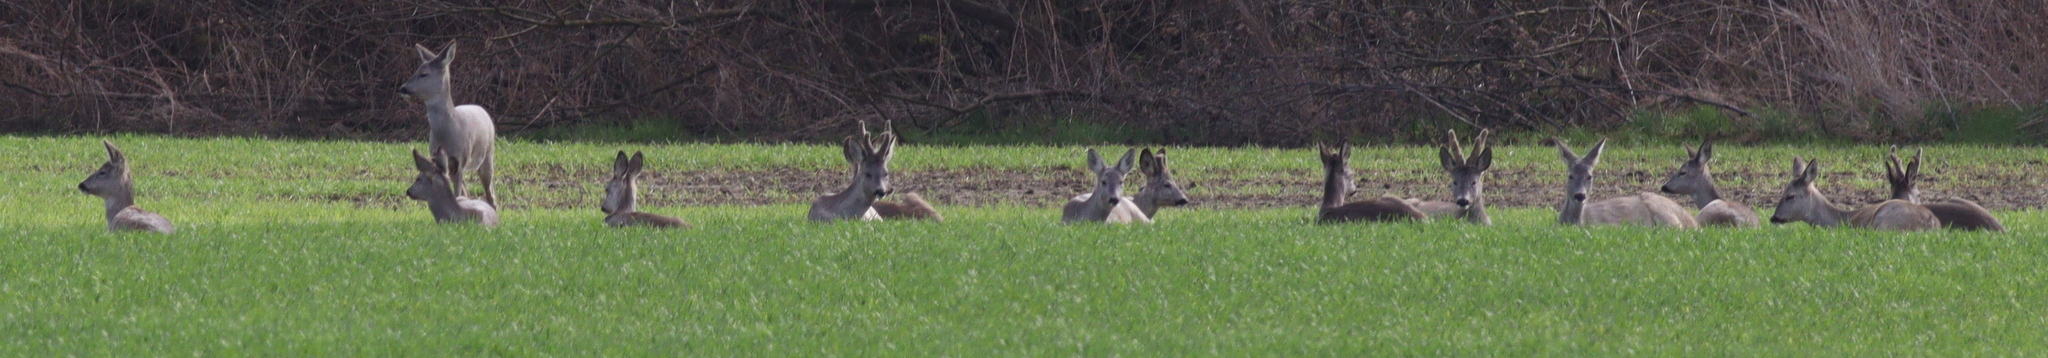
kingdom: Animalia
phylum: Chordata
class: Mammalia
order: Artiodactyla
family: Cervidae
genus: Capreolus
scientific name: Capreolus capreolus
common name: Western roe deer
